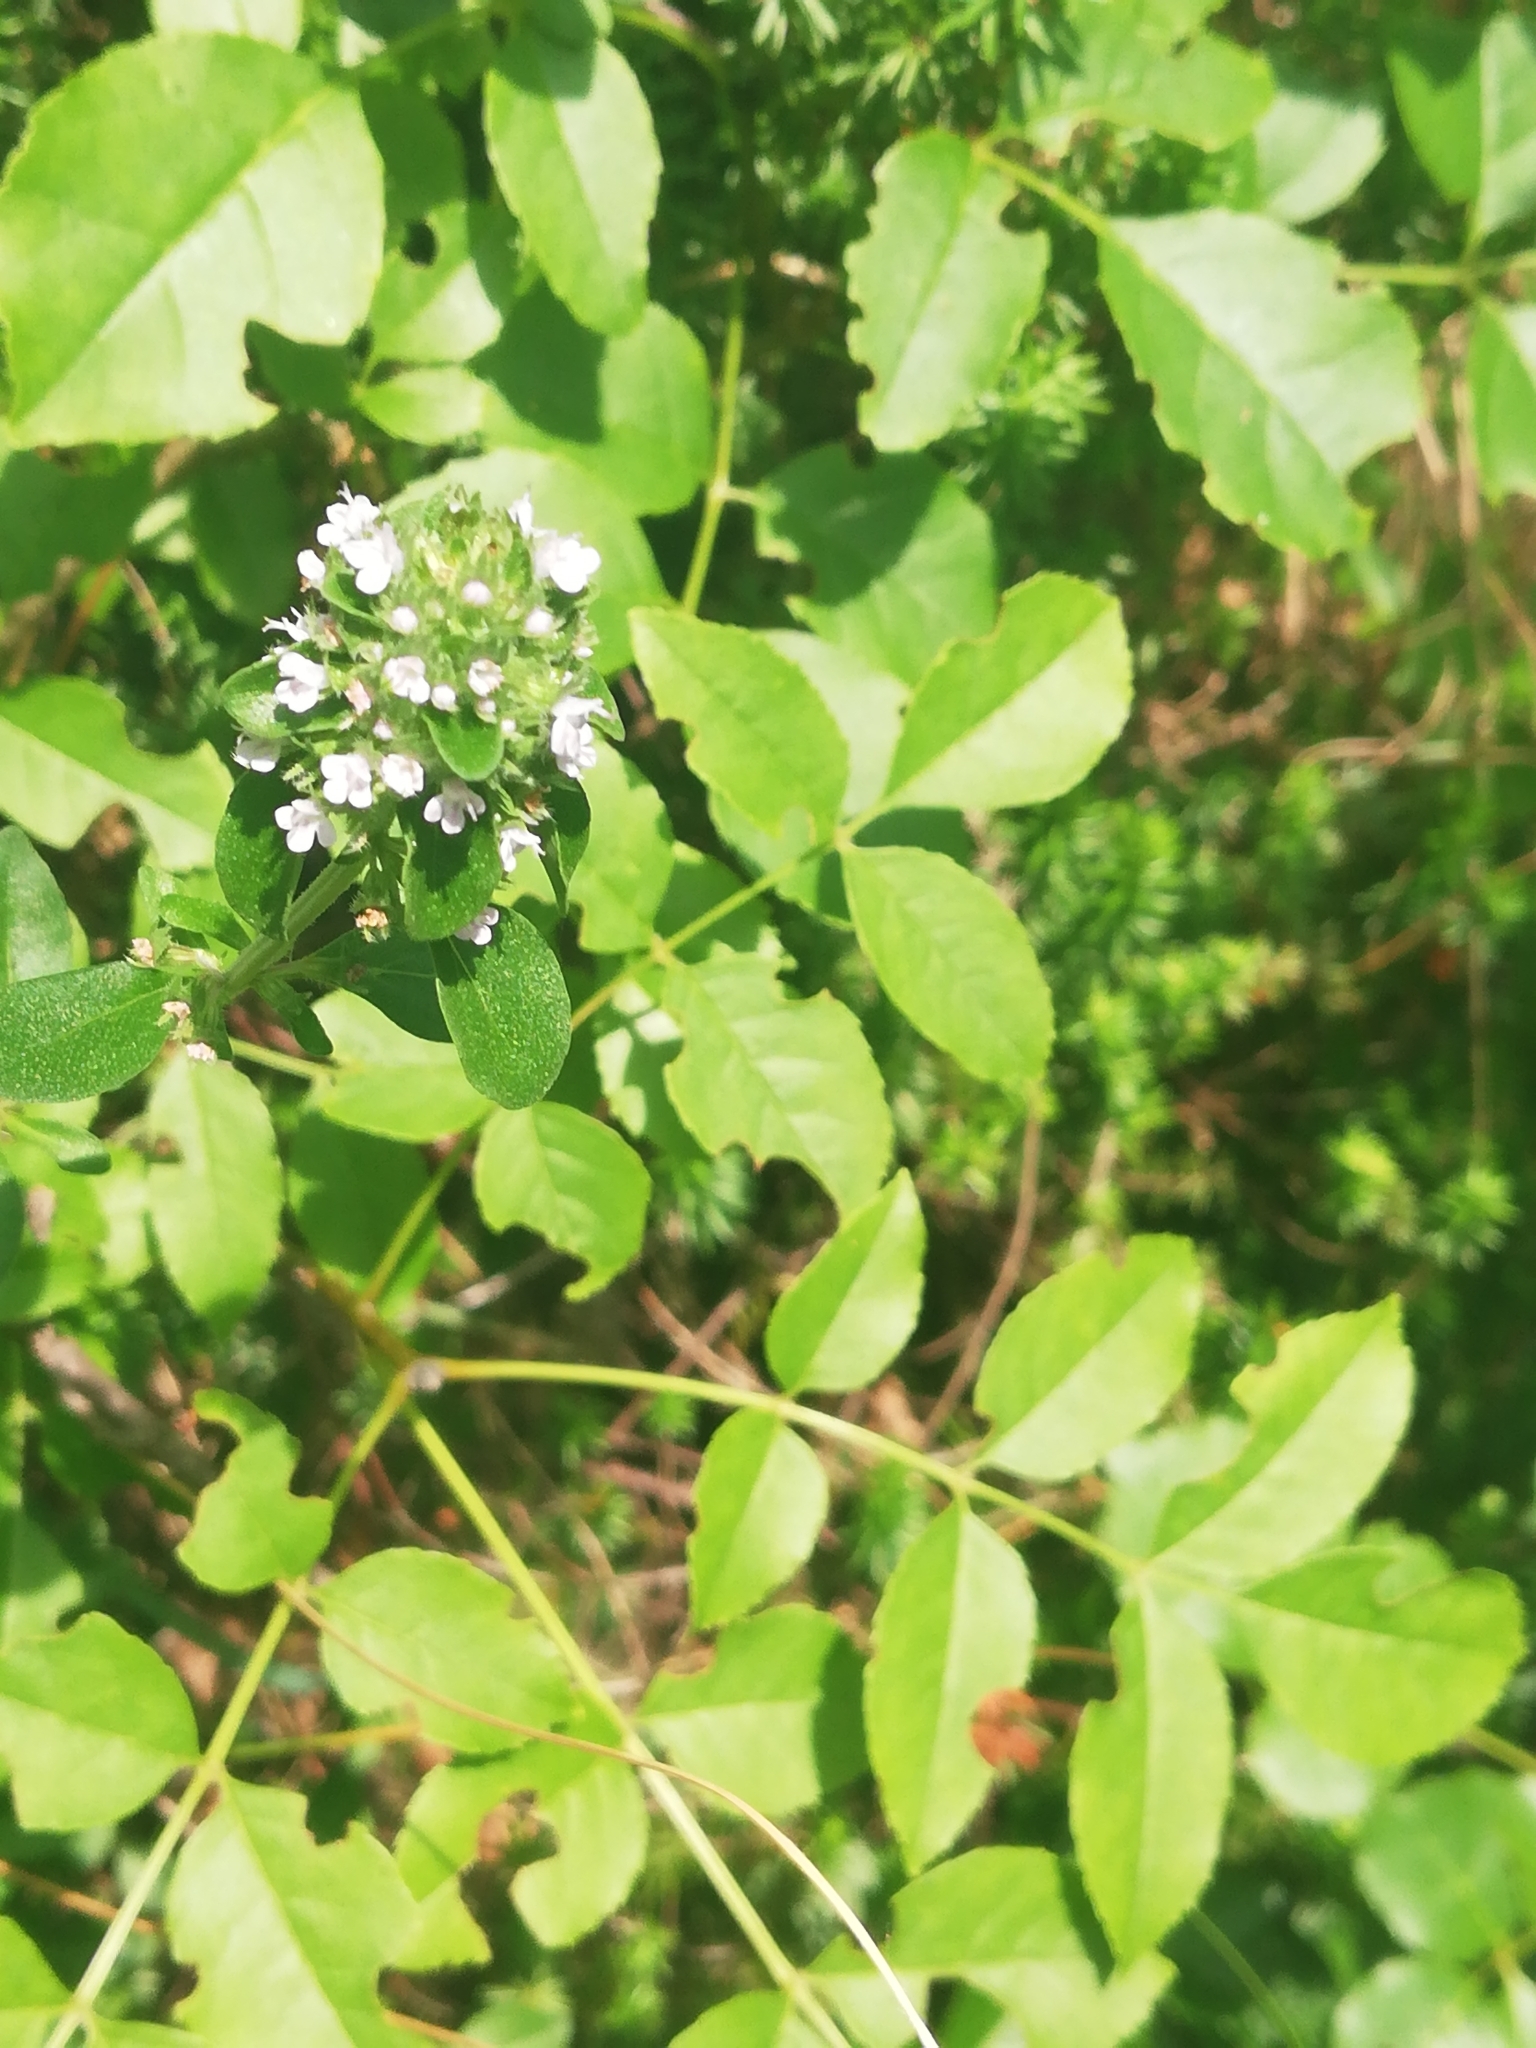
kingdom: Plantae
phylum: Tracheophyta
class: Magnoliopsida
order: Lamiales
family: Lamiaceae
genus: Origanum
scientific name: Origanum vulgare
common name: Wild marjoram
